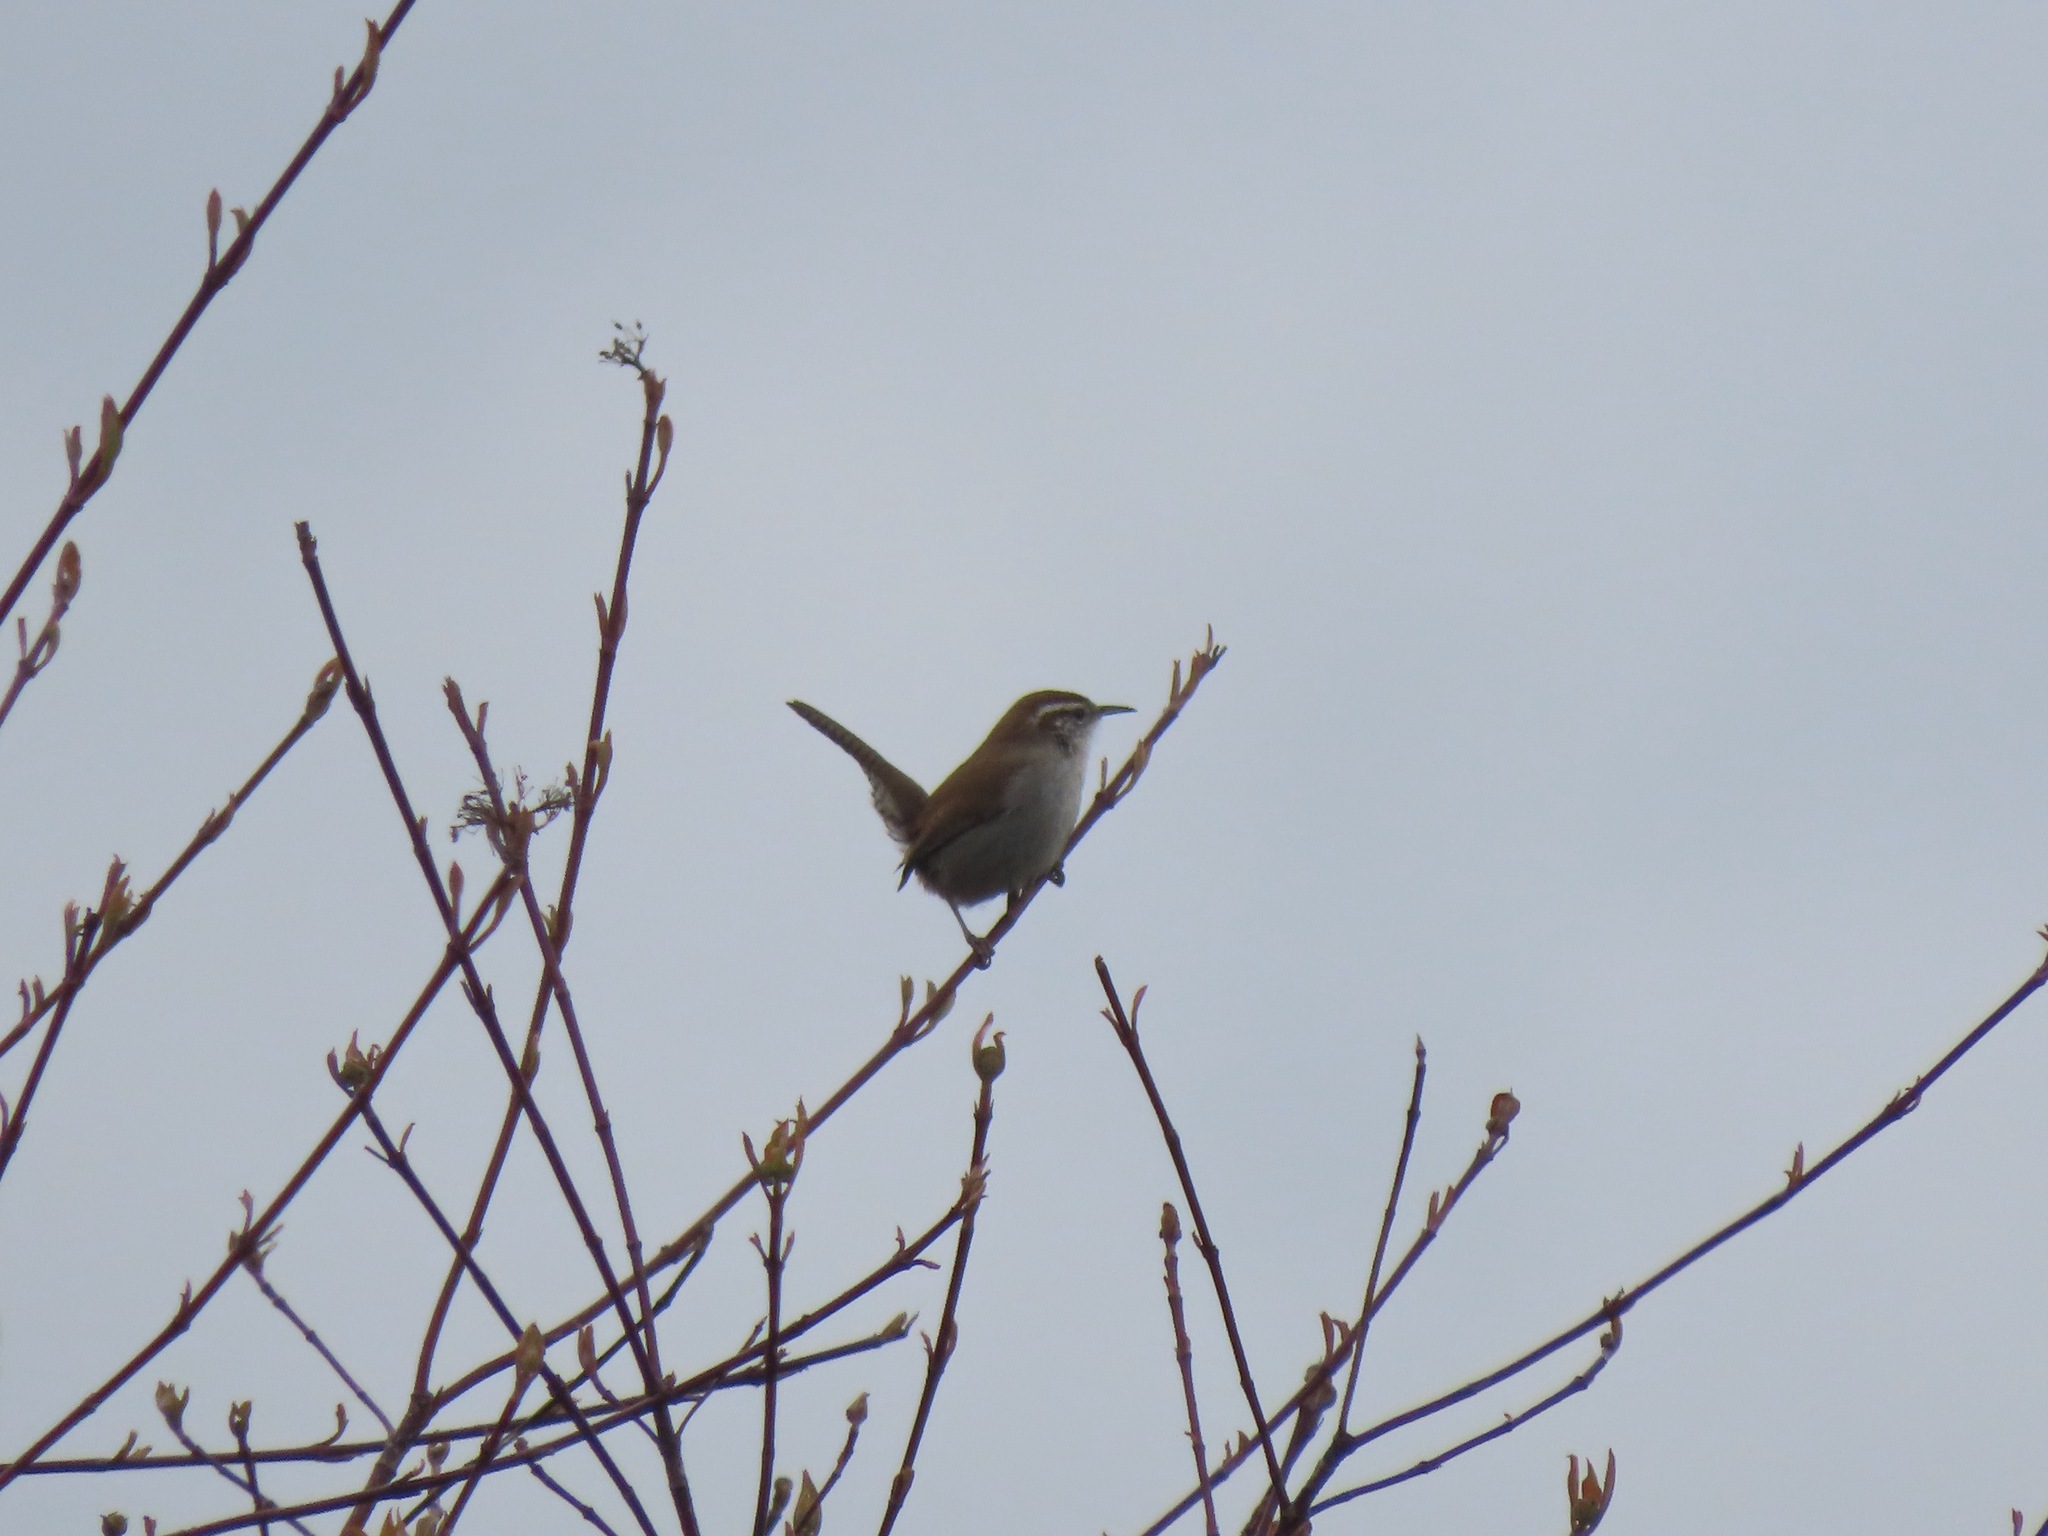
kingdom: Animalia
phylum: Chordata
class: Aves
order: Passeriformes
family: Troglodytidae
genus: Thryomanes
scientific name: Thryomanes bewickii
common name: Bewick's wren
